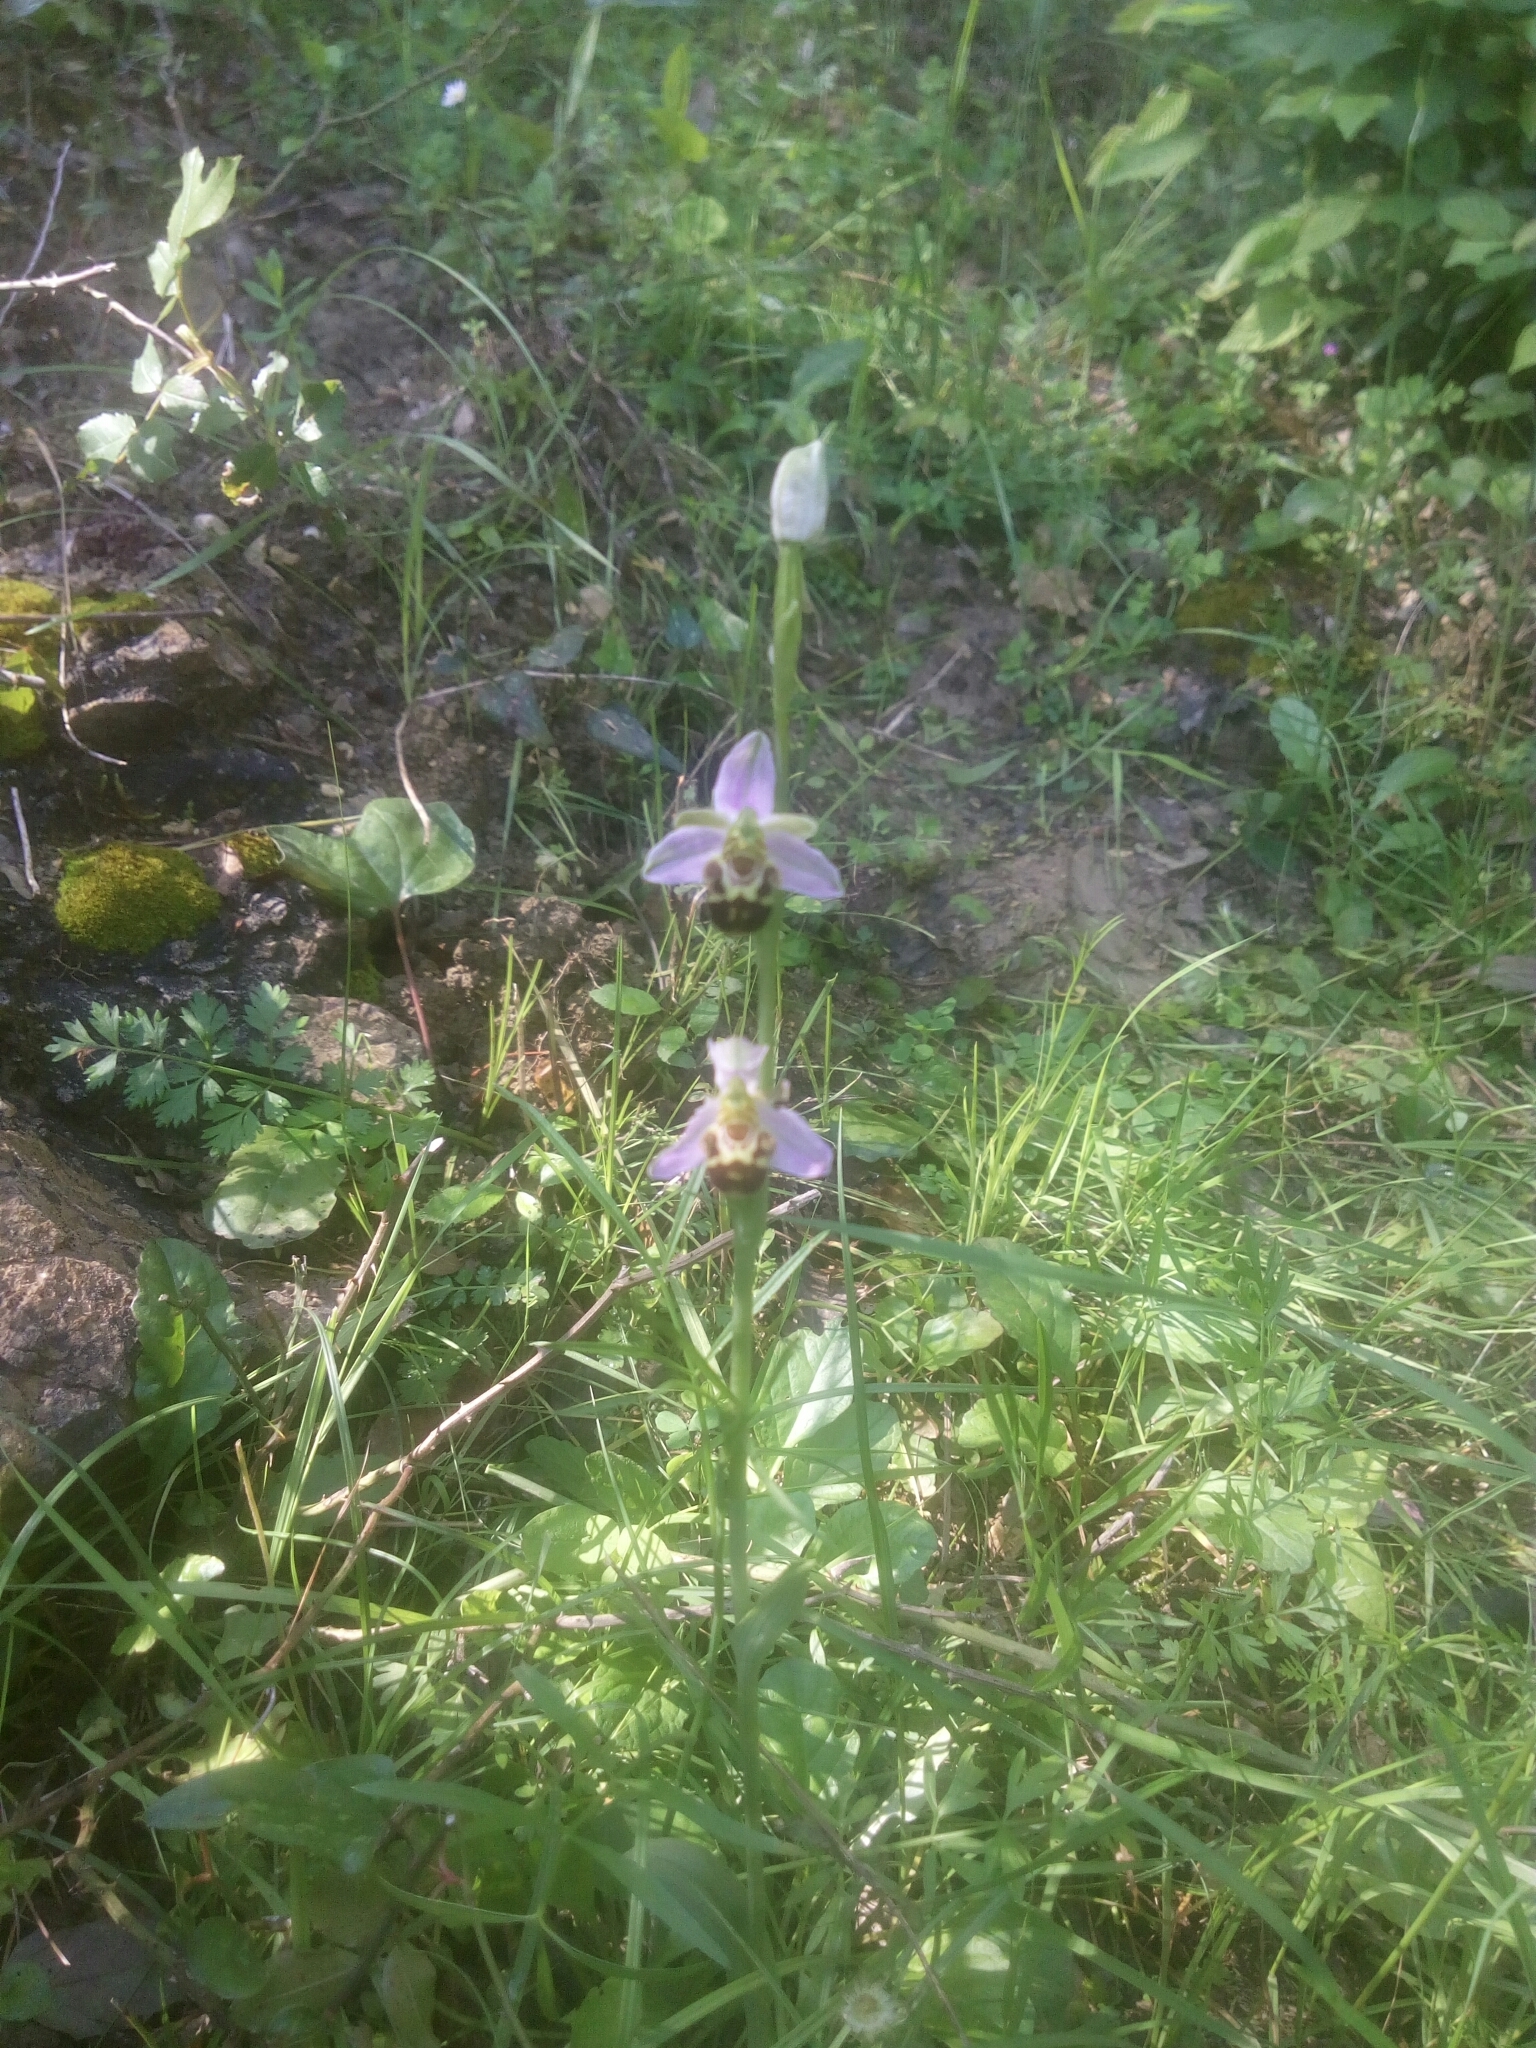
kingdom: Plantae
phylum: Tracheophyta
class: Liliopsida
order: Asparagales
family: Orchidaceae
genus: Ophrys
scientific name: Ophrys apifera
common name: Bee orchid
